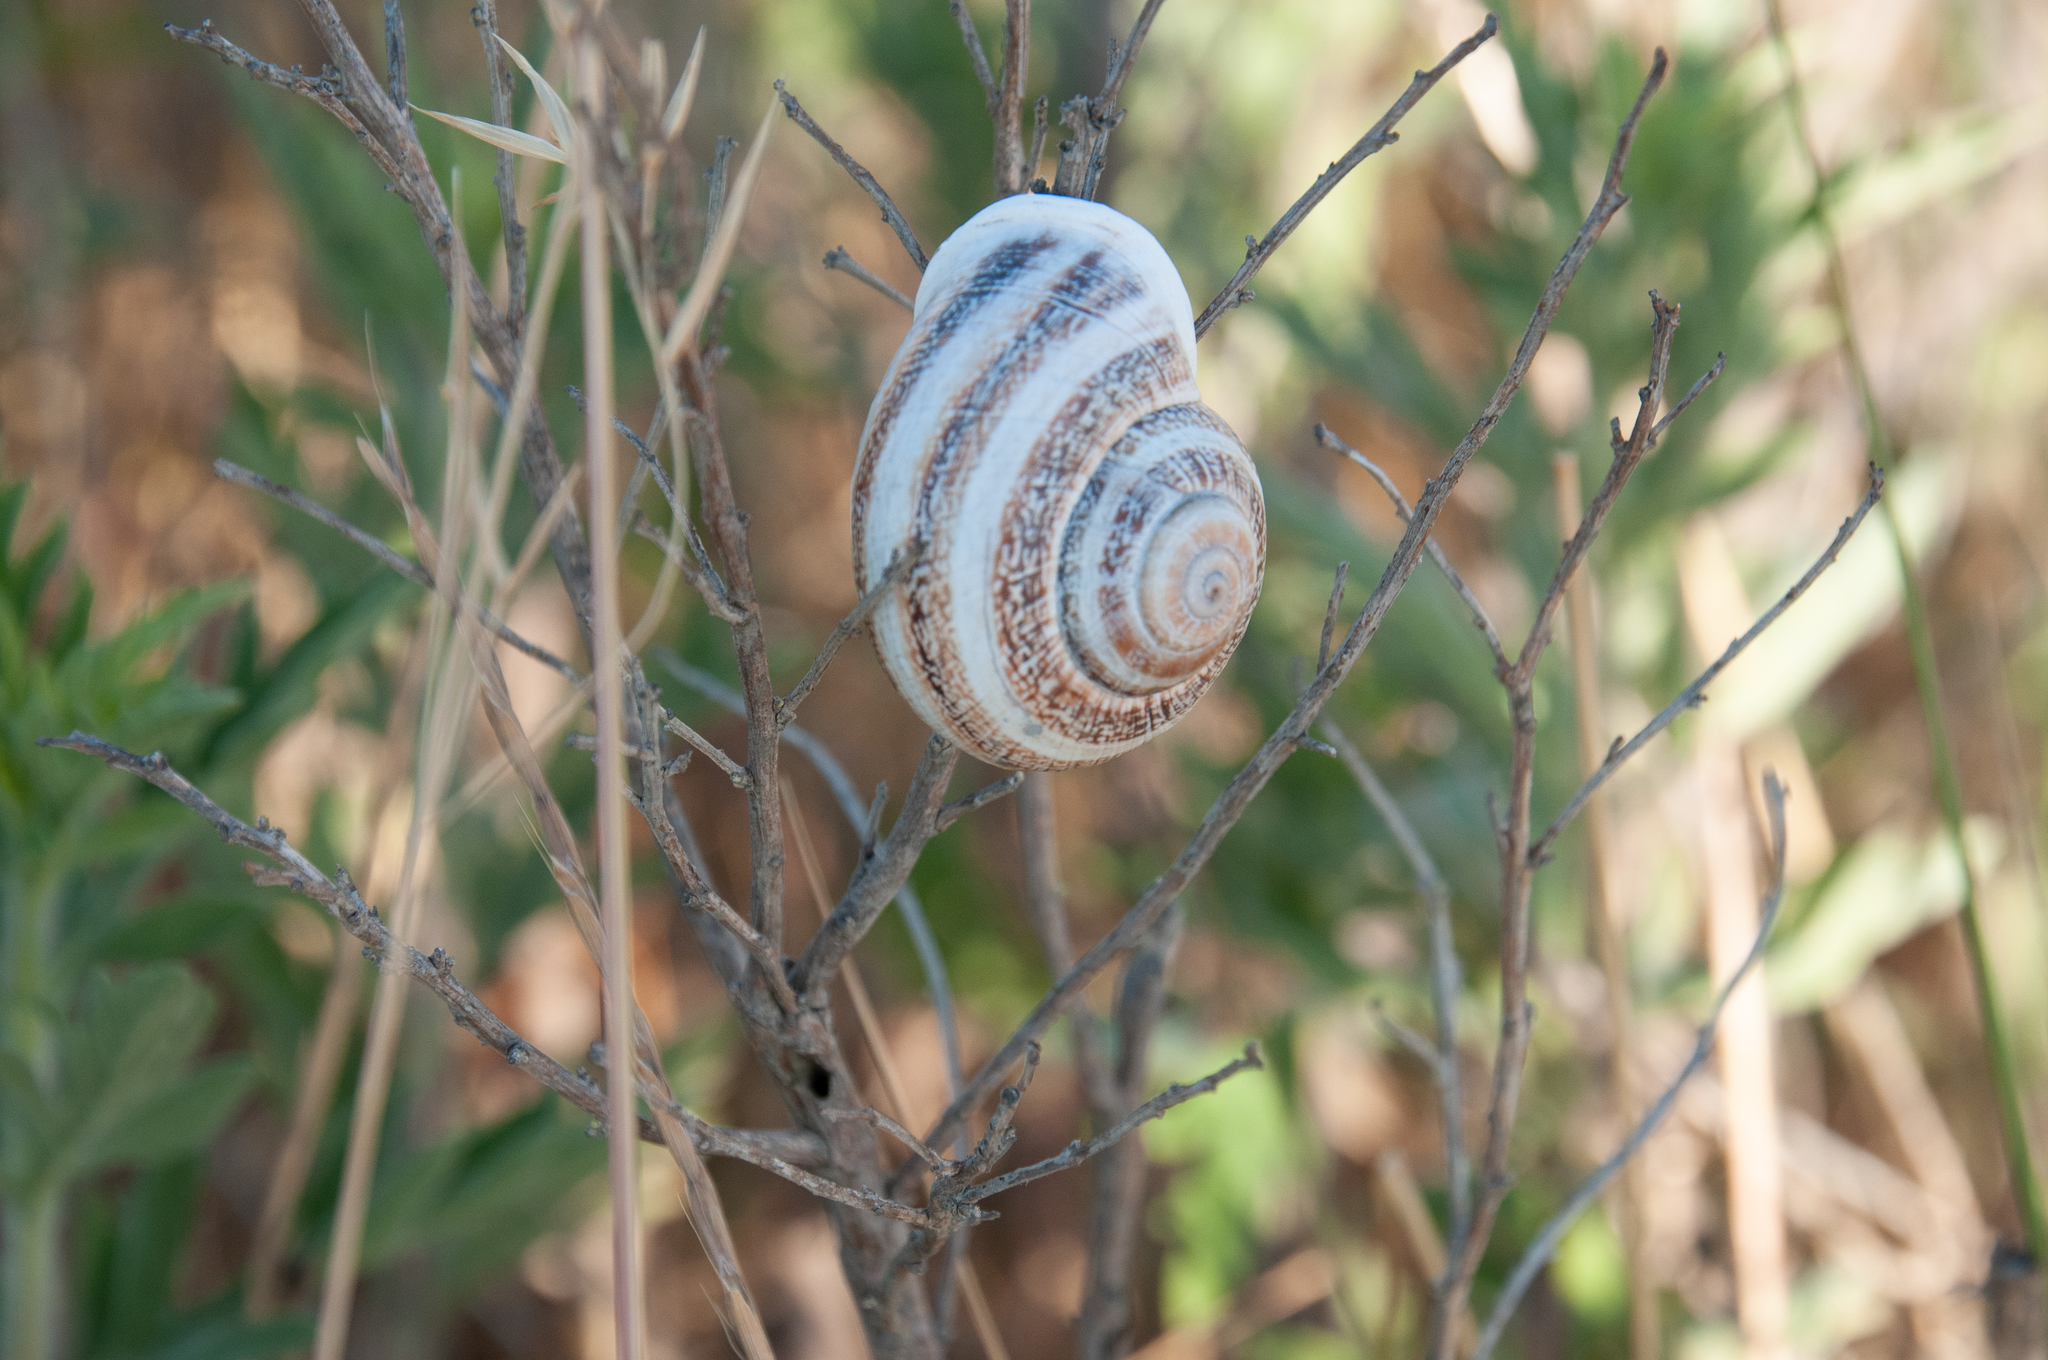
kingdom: Animalia
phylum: Mollusca
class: Gastropoda
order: Stylommatophora
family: Helicidae
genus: Otala
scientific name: Otala lactea
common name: Milk snail
